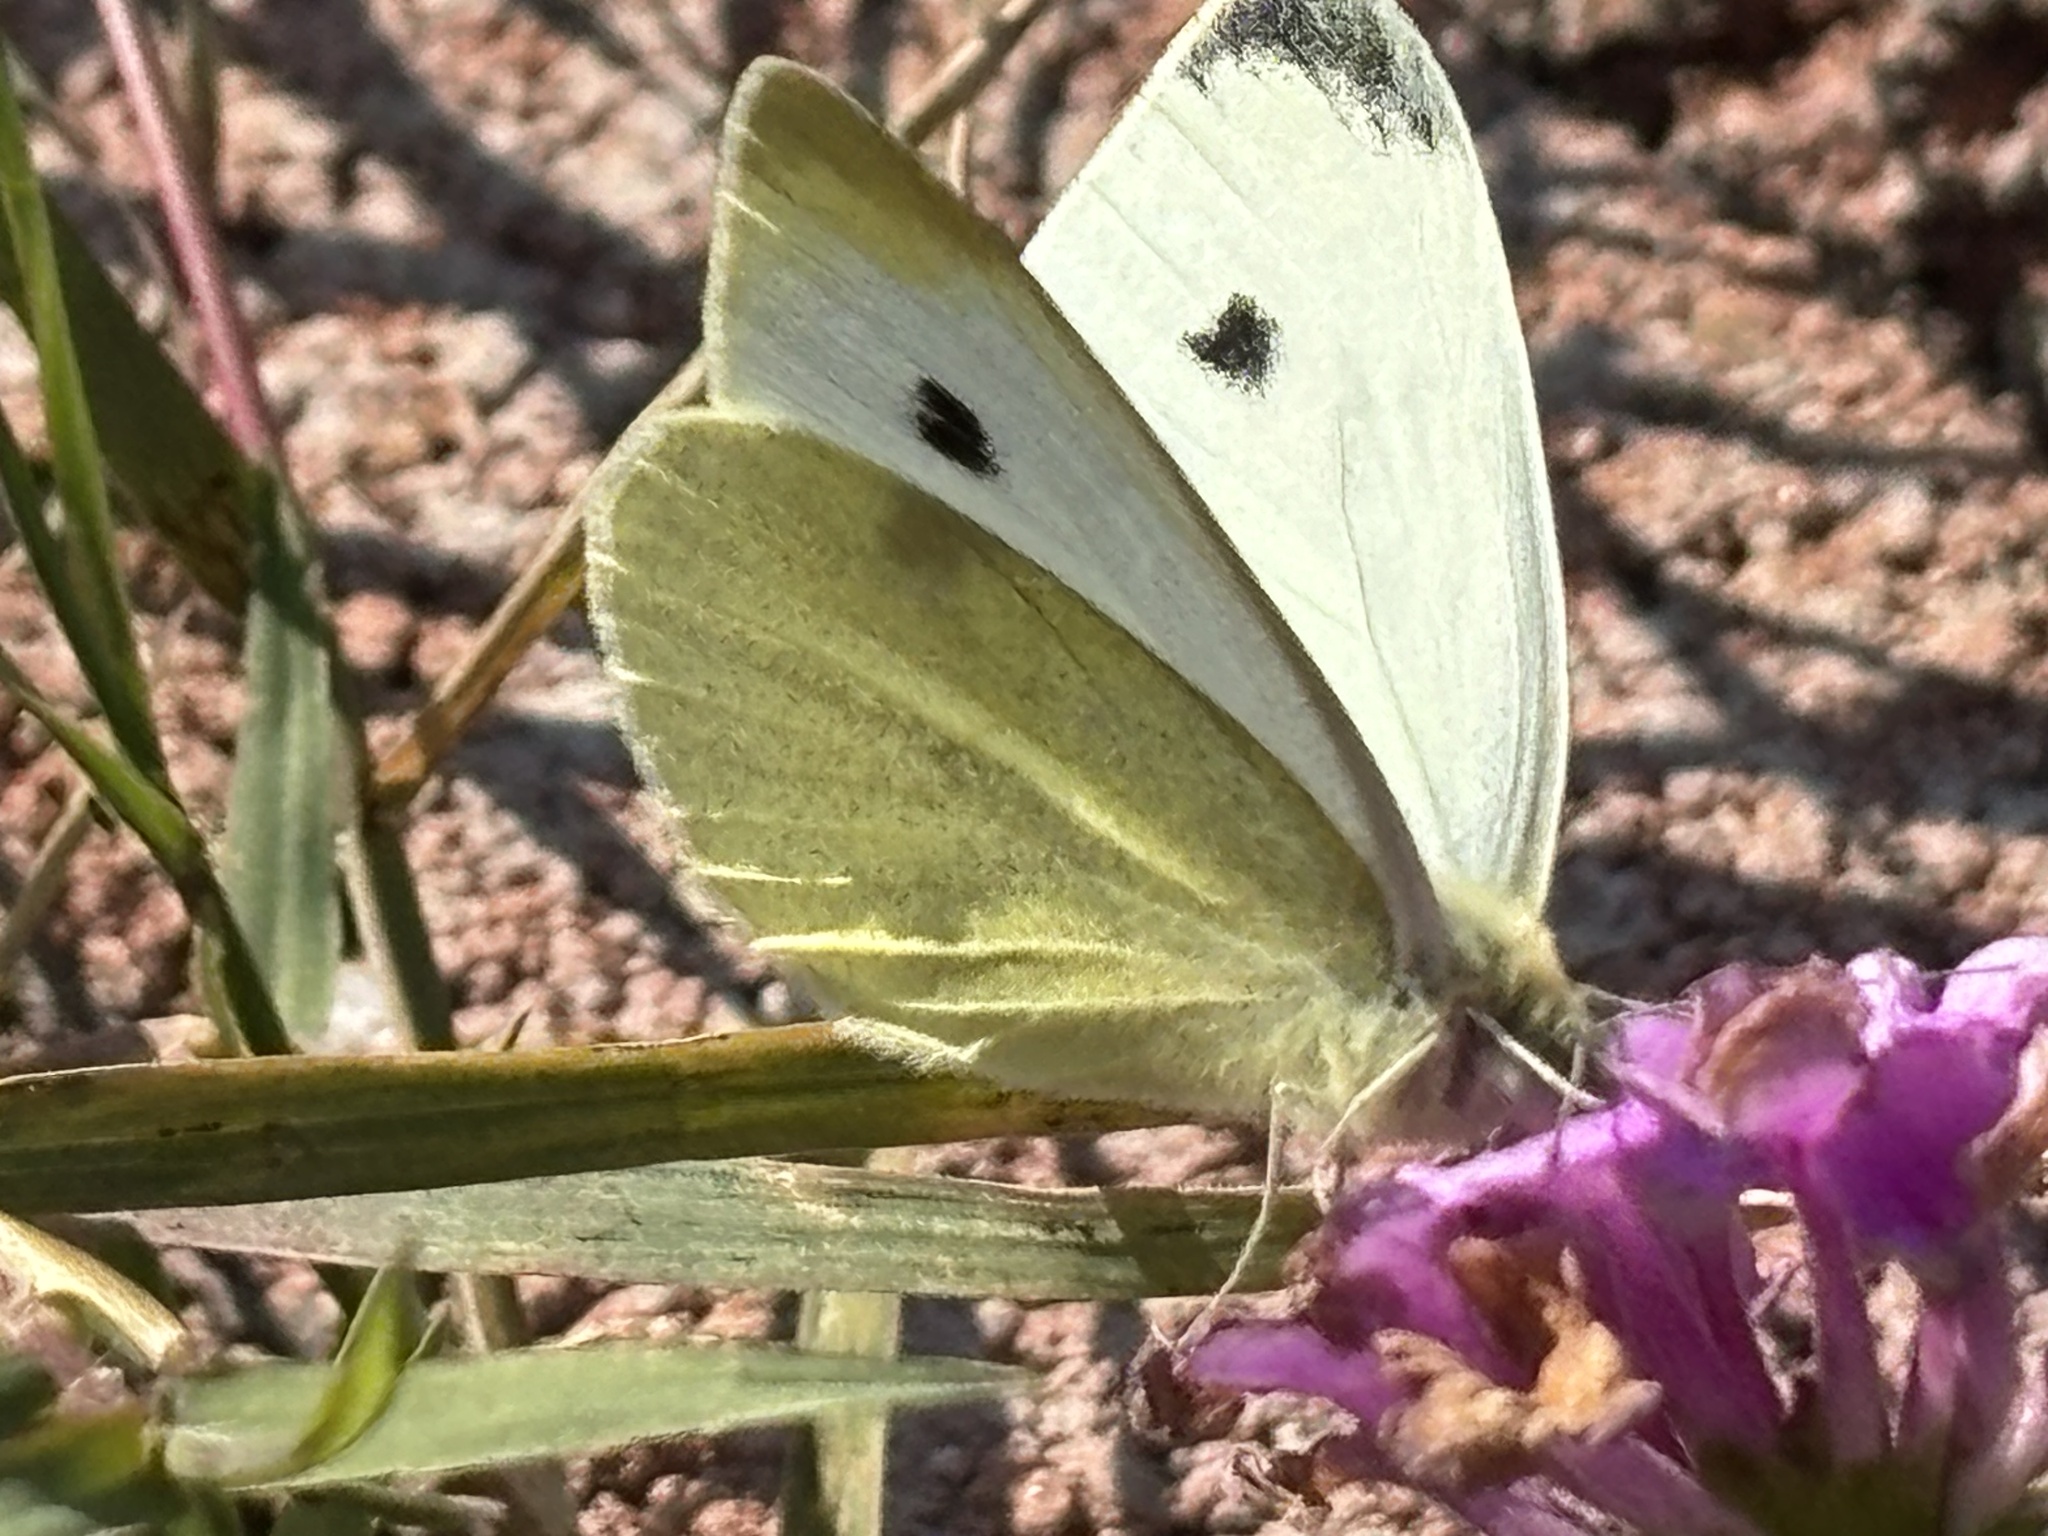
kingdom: Animalia
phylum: Arthropoda
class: Insecta
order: Lepidoptera
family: Pieridae
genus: Pieris
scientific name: Pieris rapae
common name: Small white
